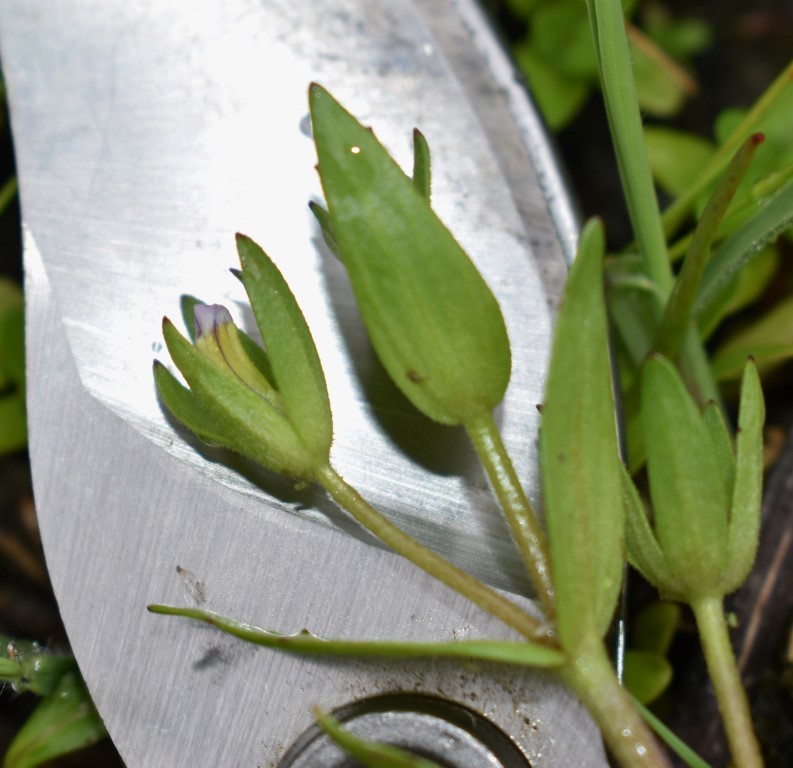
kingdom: Plantae
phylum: Tracheophyta
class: Magnoliopsida
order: Lamiales
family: Plantaginaceae
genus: Gratiola
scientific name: Gratiola ebracteata
